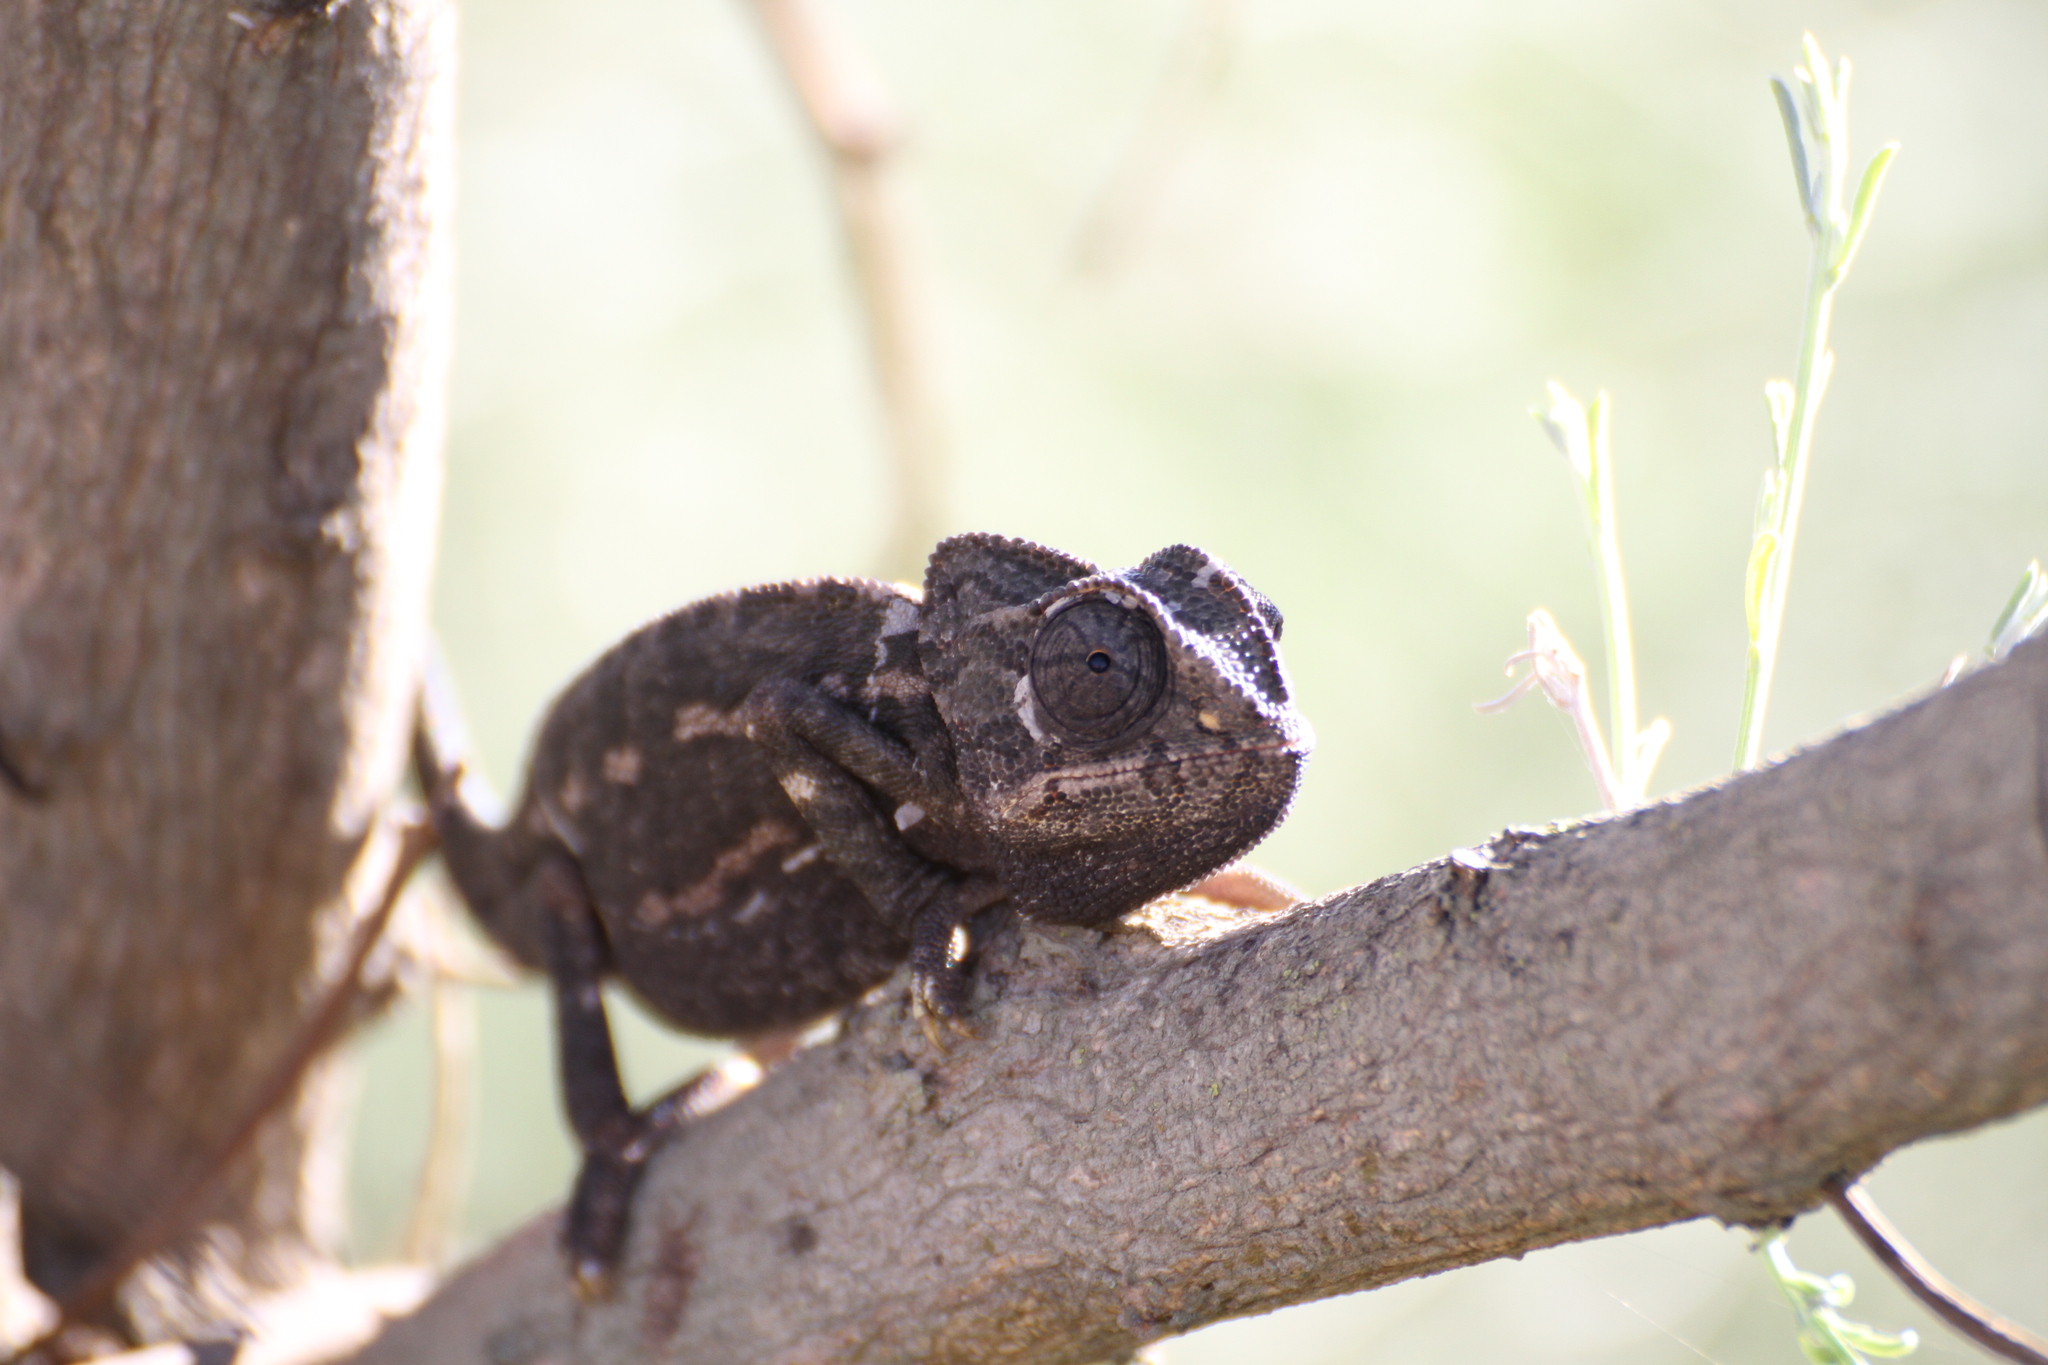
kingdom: Animalia
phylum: Chordata
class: Squamata
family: Chamaeleonidae
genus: Chamaeleo
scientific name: Chamaeleo chamaeleon
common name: Mediterranean chameleon
